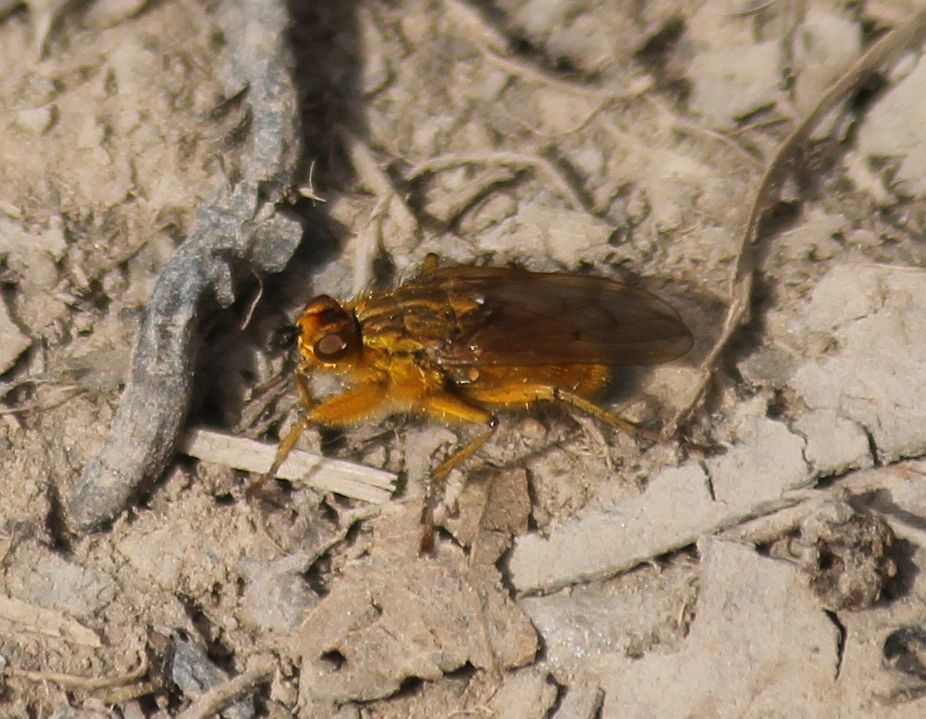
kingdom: Animalia
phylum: Arthropoda
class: Insecta
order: Diptera
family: Scathophagidae
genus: Scathophaga
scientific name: Scathophaga stercoraria
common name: Yellow dung fly
